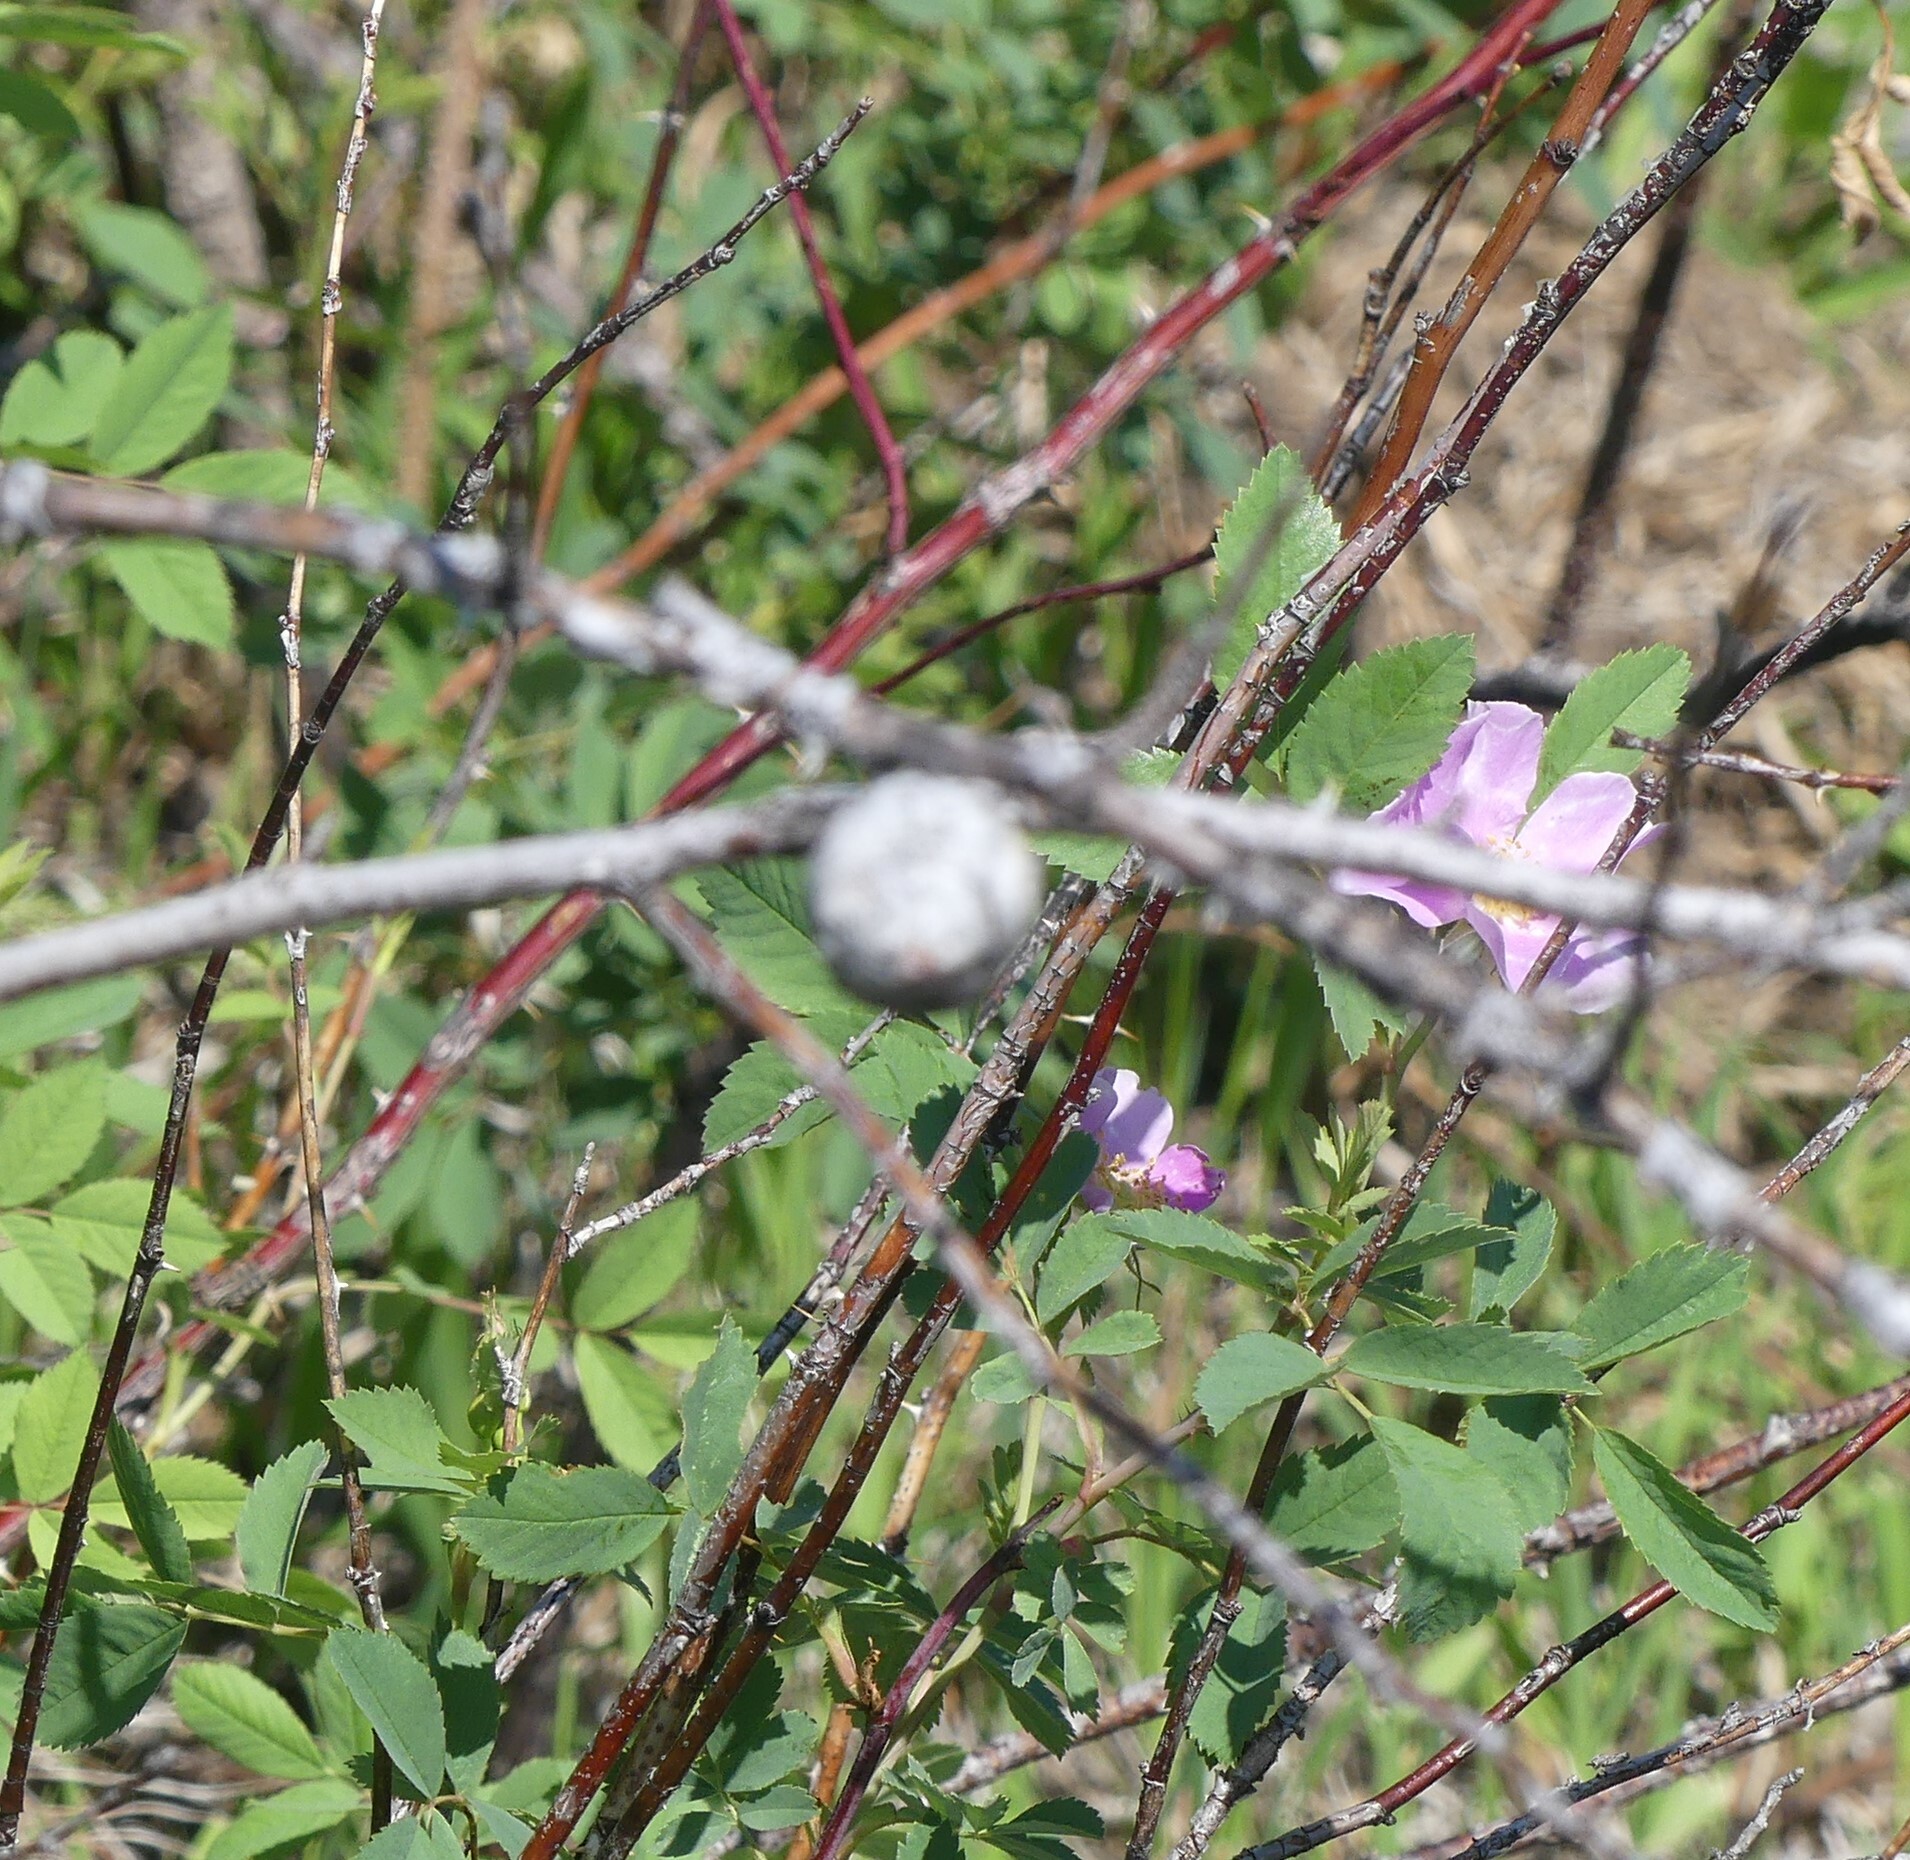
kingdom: Animalia
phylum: Arthropoda
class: Insecta
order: Hymenoptera
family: Cynipidae
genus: Diplolepis
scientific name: Diplolepis spinosa
